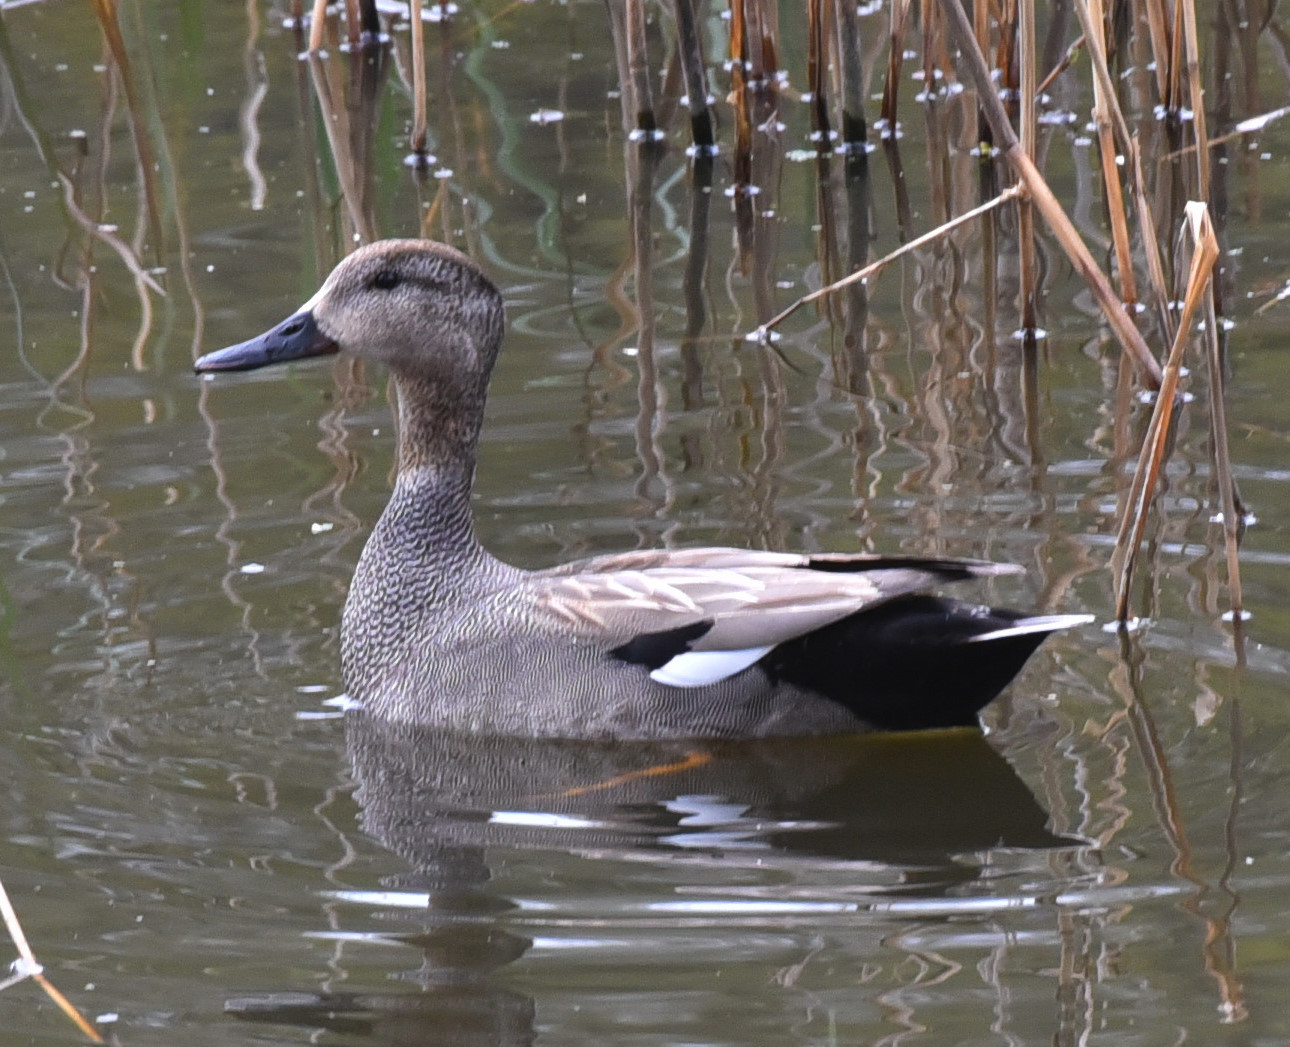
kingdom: Animalia
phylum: Chordata
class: Aves
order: Anseriformes
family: Anatidae
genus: Mareca
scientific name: Mareca strepera
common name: Gadwall
